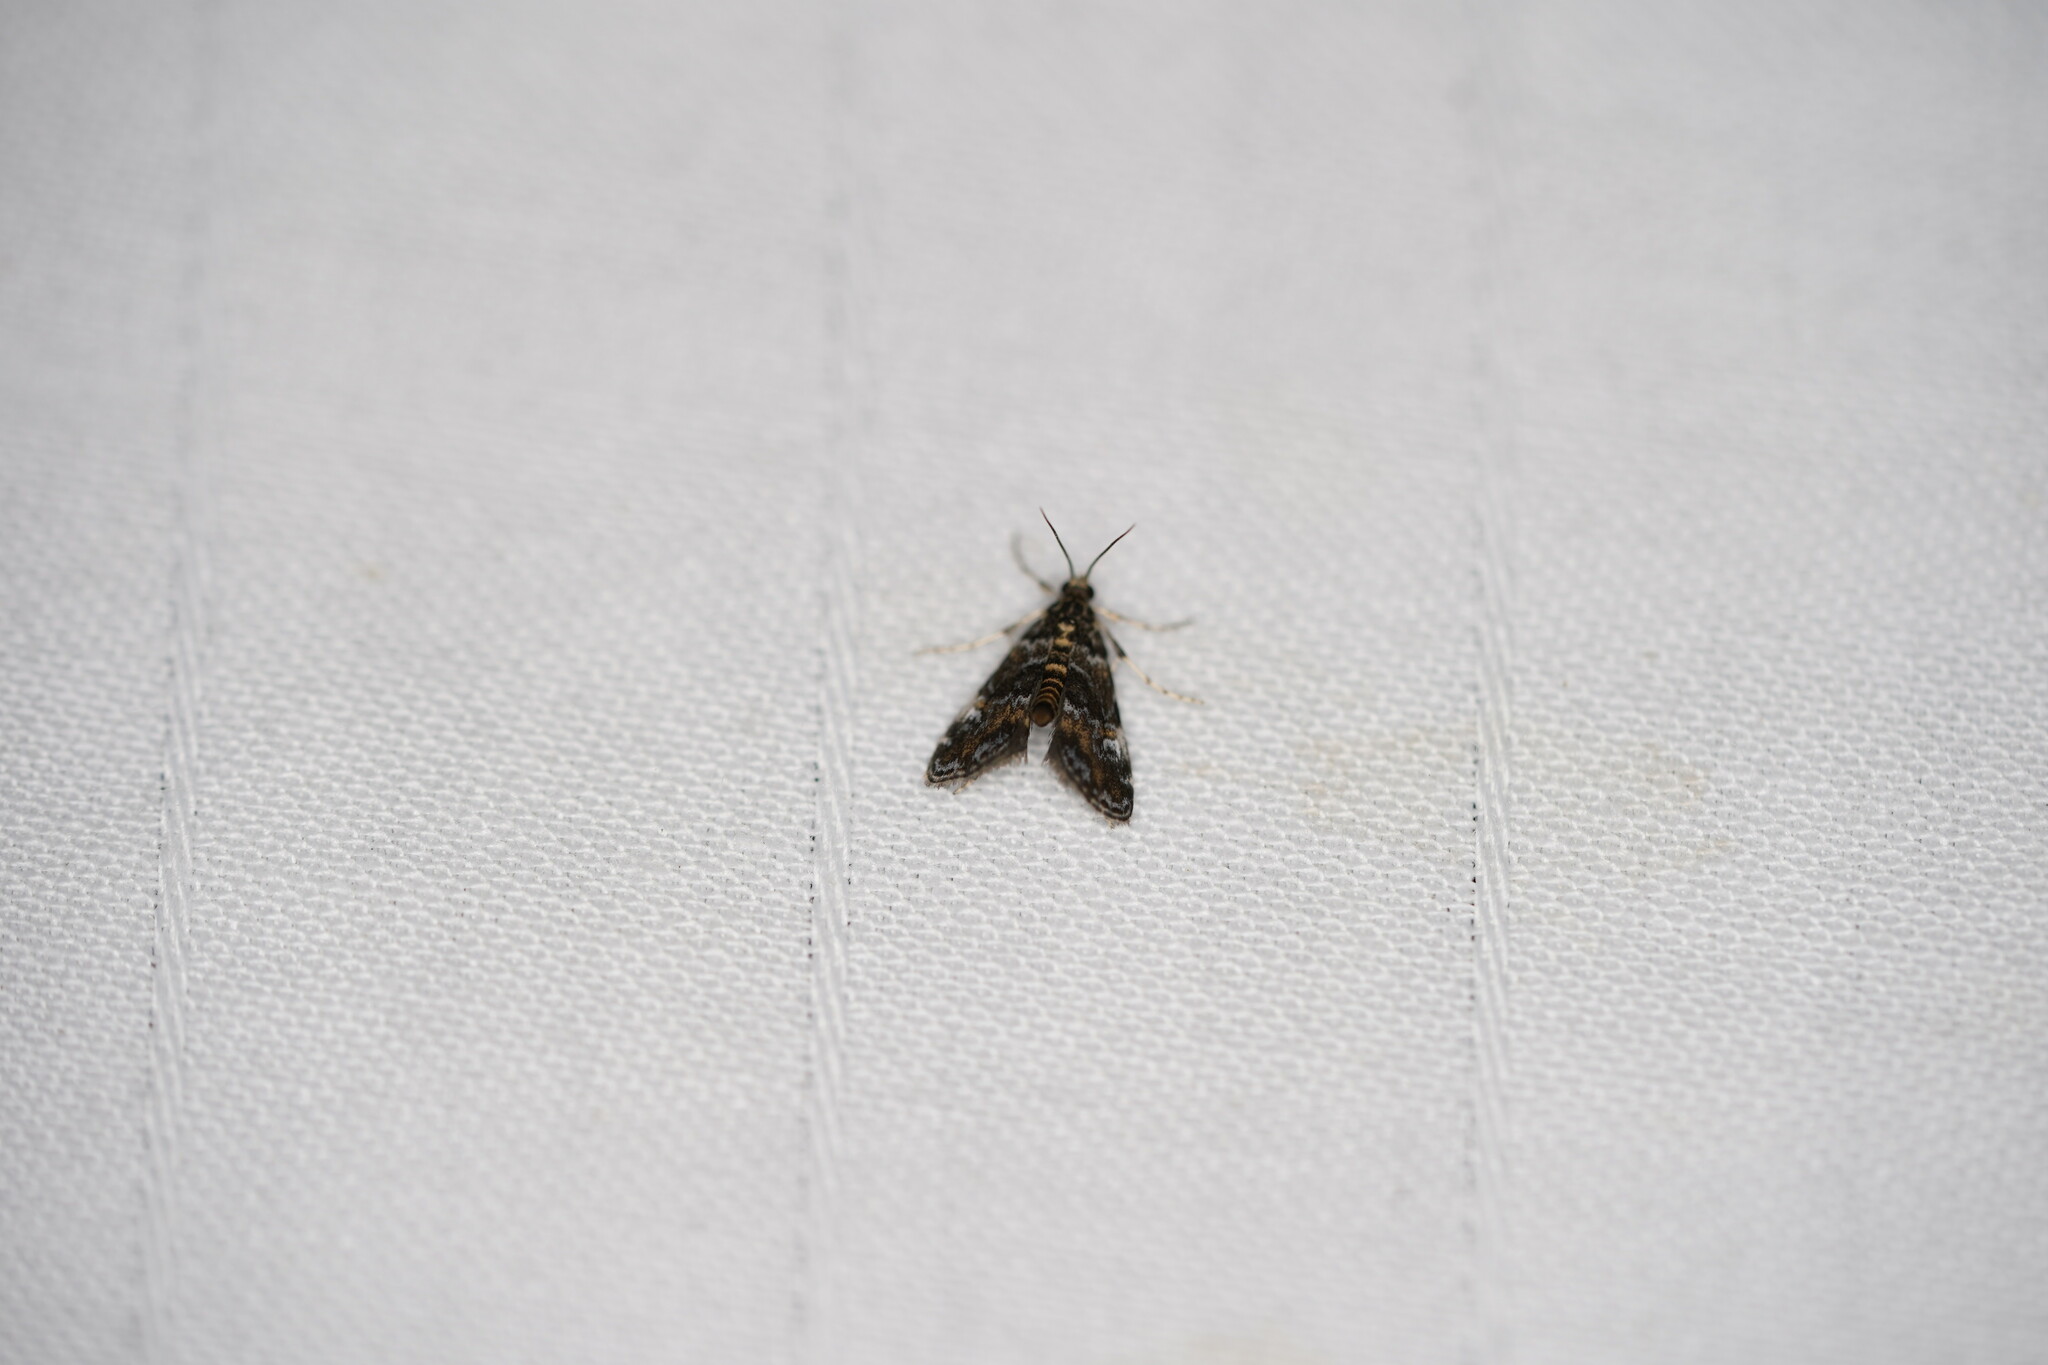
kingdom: Animalia
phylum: Arthropoda
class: Insecta
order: Lepidoptera
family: Crambidae
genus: Elophila
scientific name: Elophila obliteralis
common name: Waterlily leafcutter moth
